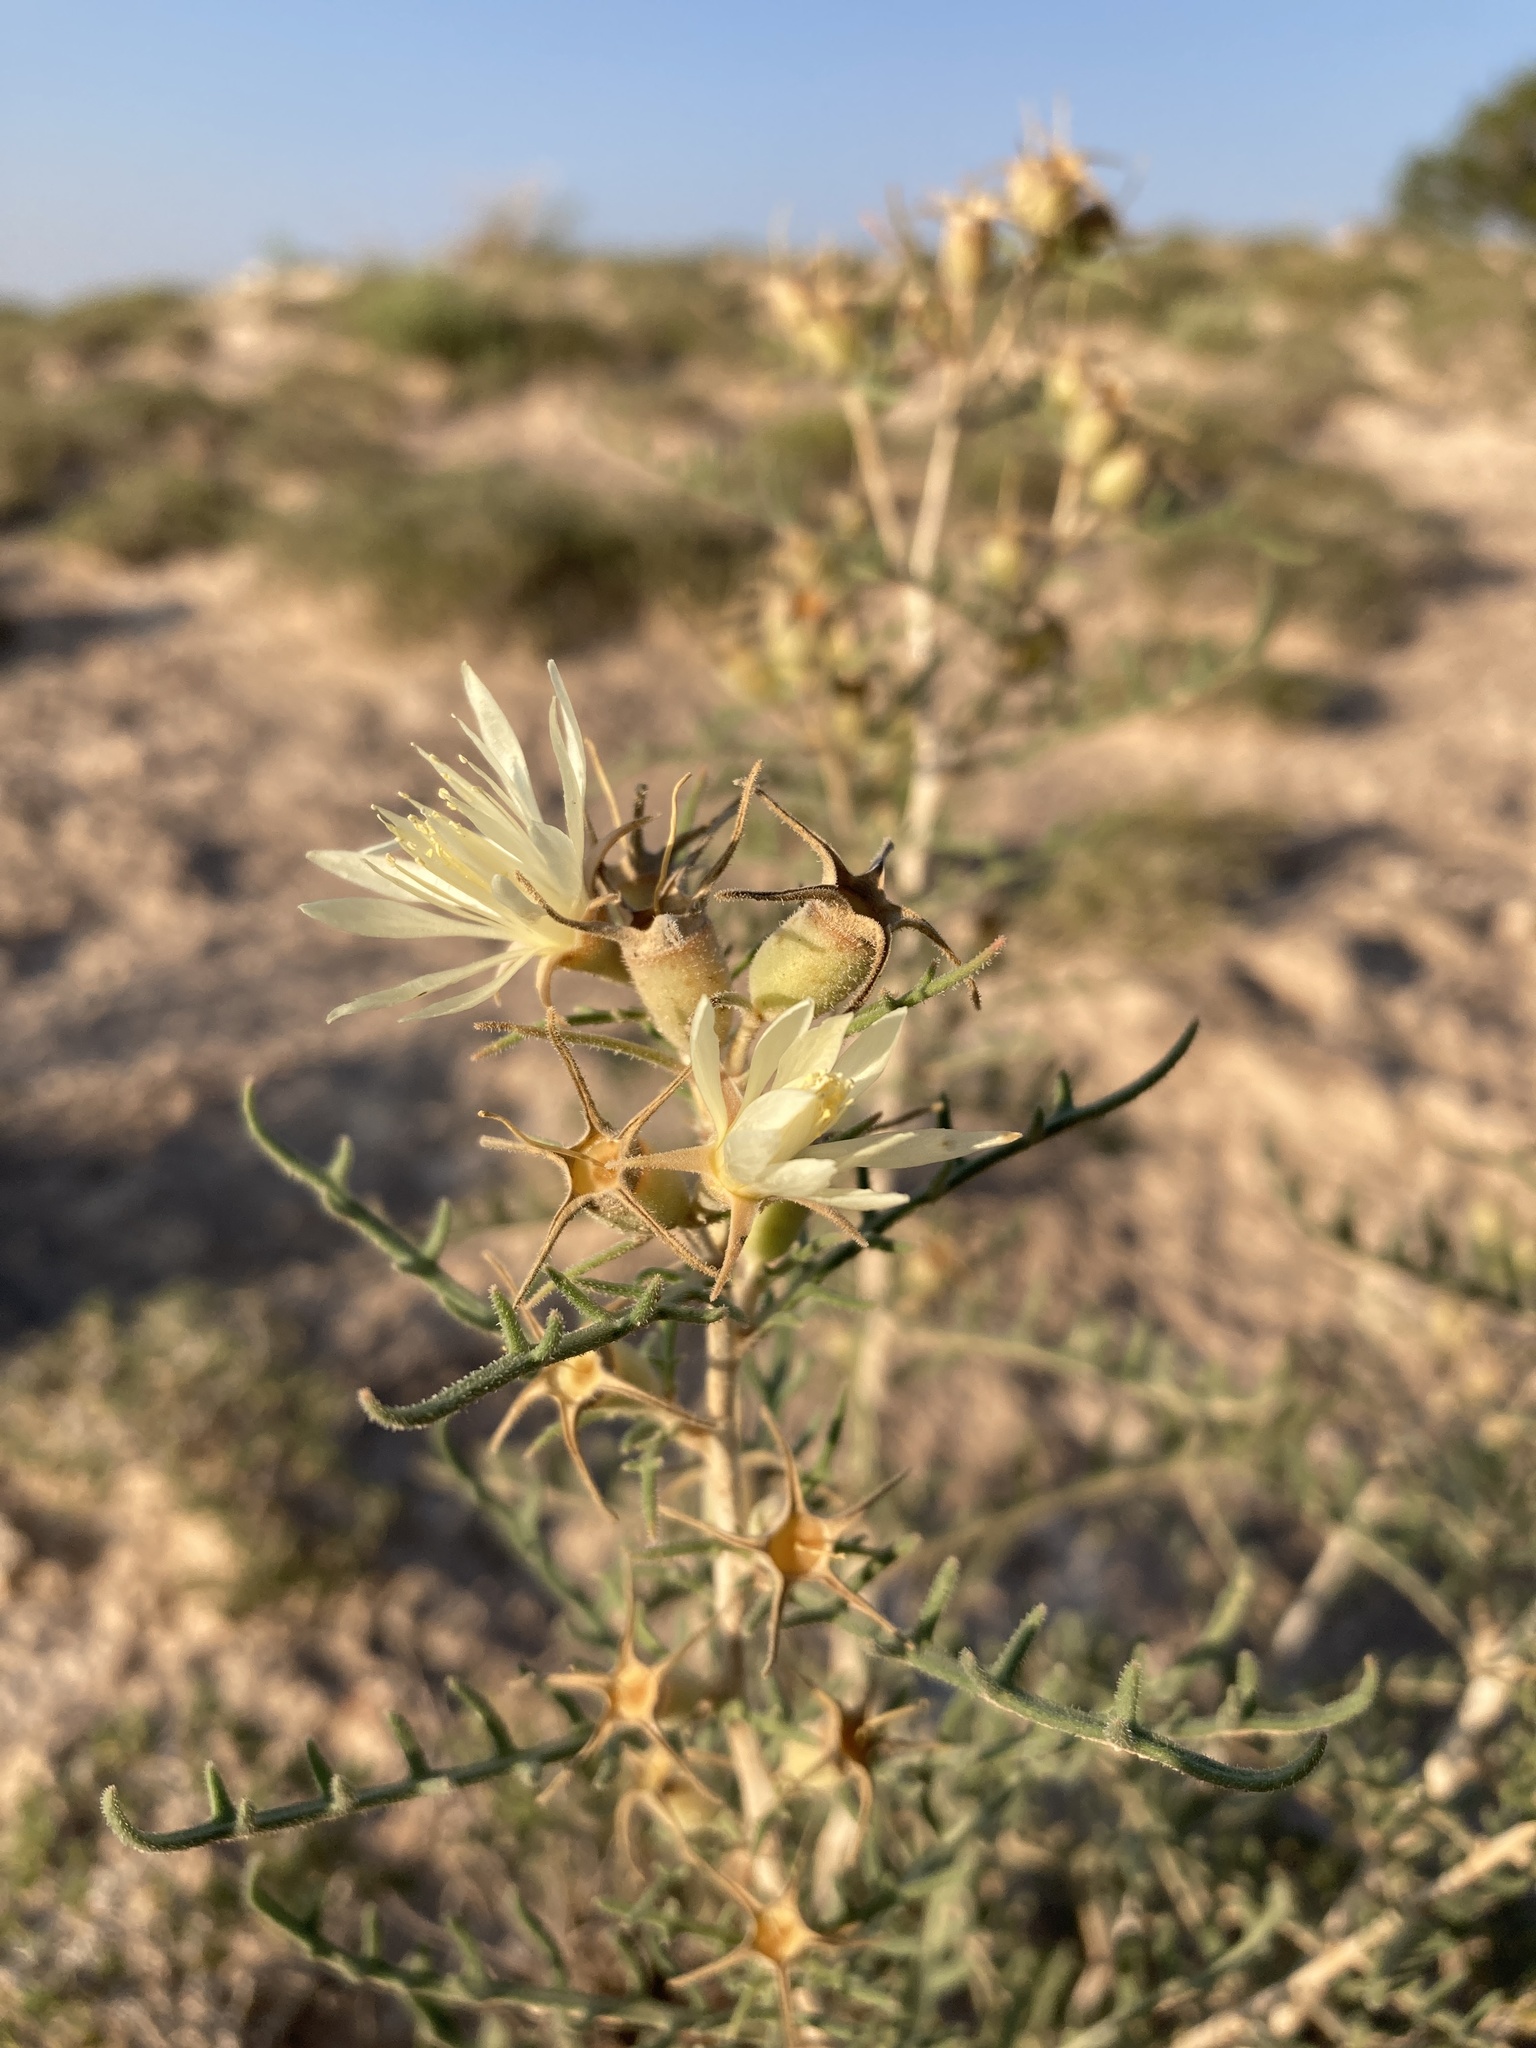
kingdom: Plantae
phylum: Tracheophyta
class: Magnoliopsida
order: Cornales
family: Loasaceae
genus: Mentzelia
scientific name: Mentzelia humilis
